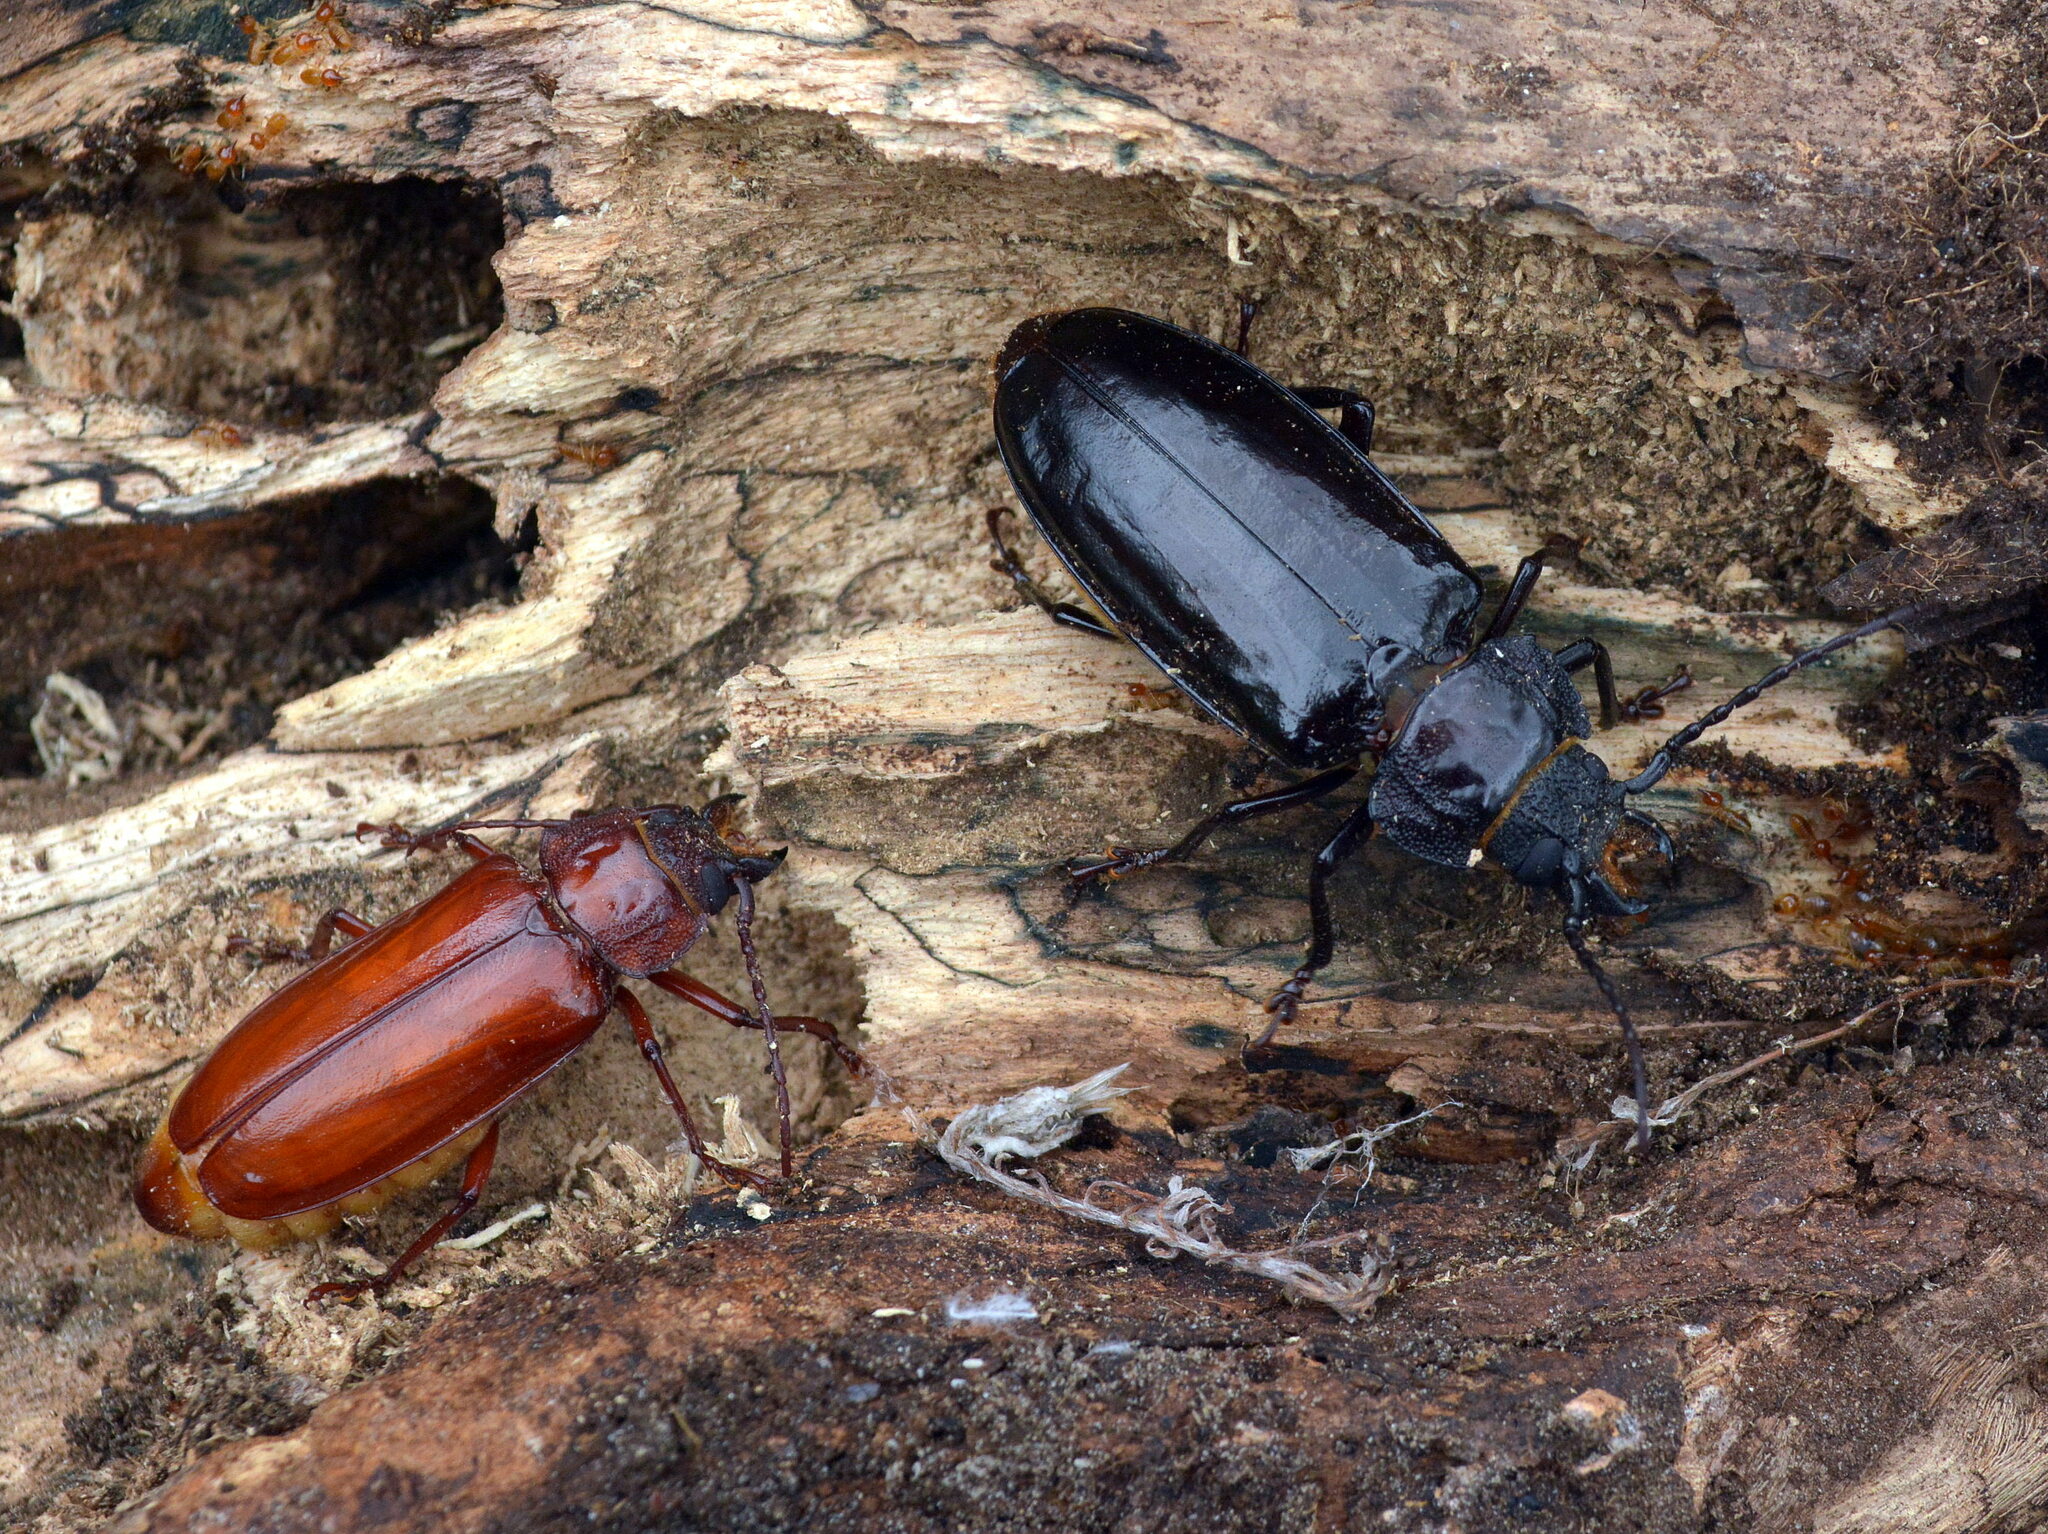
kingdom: Animalia
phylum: Arthropoda
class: Insecta
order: Coleoptera
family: Cerambycidae
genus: Mallodon
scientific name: Mallodon dasystomum
